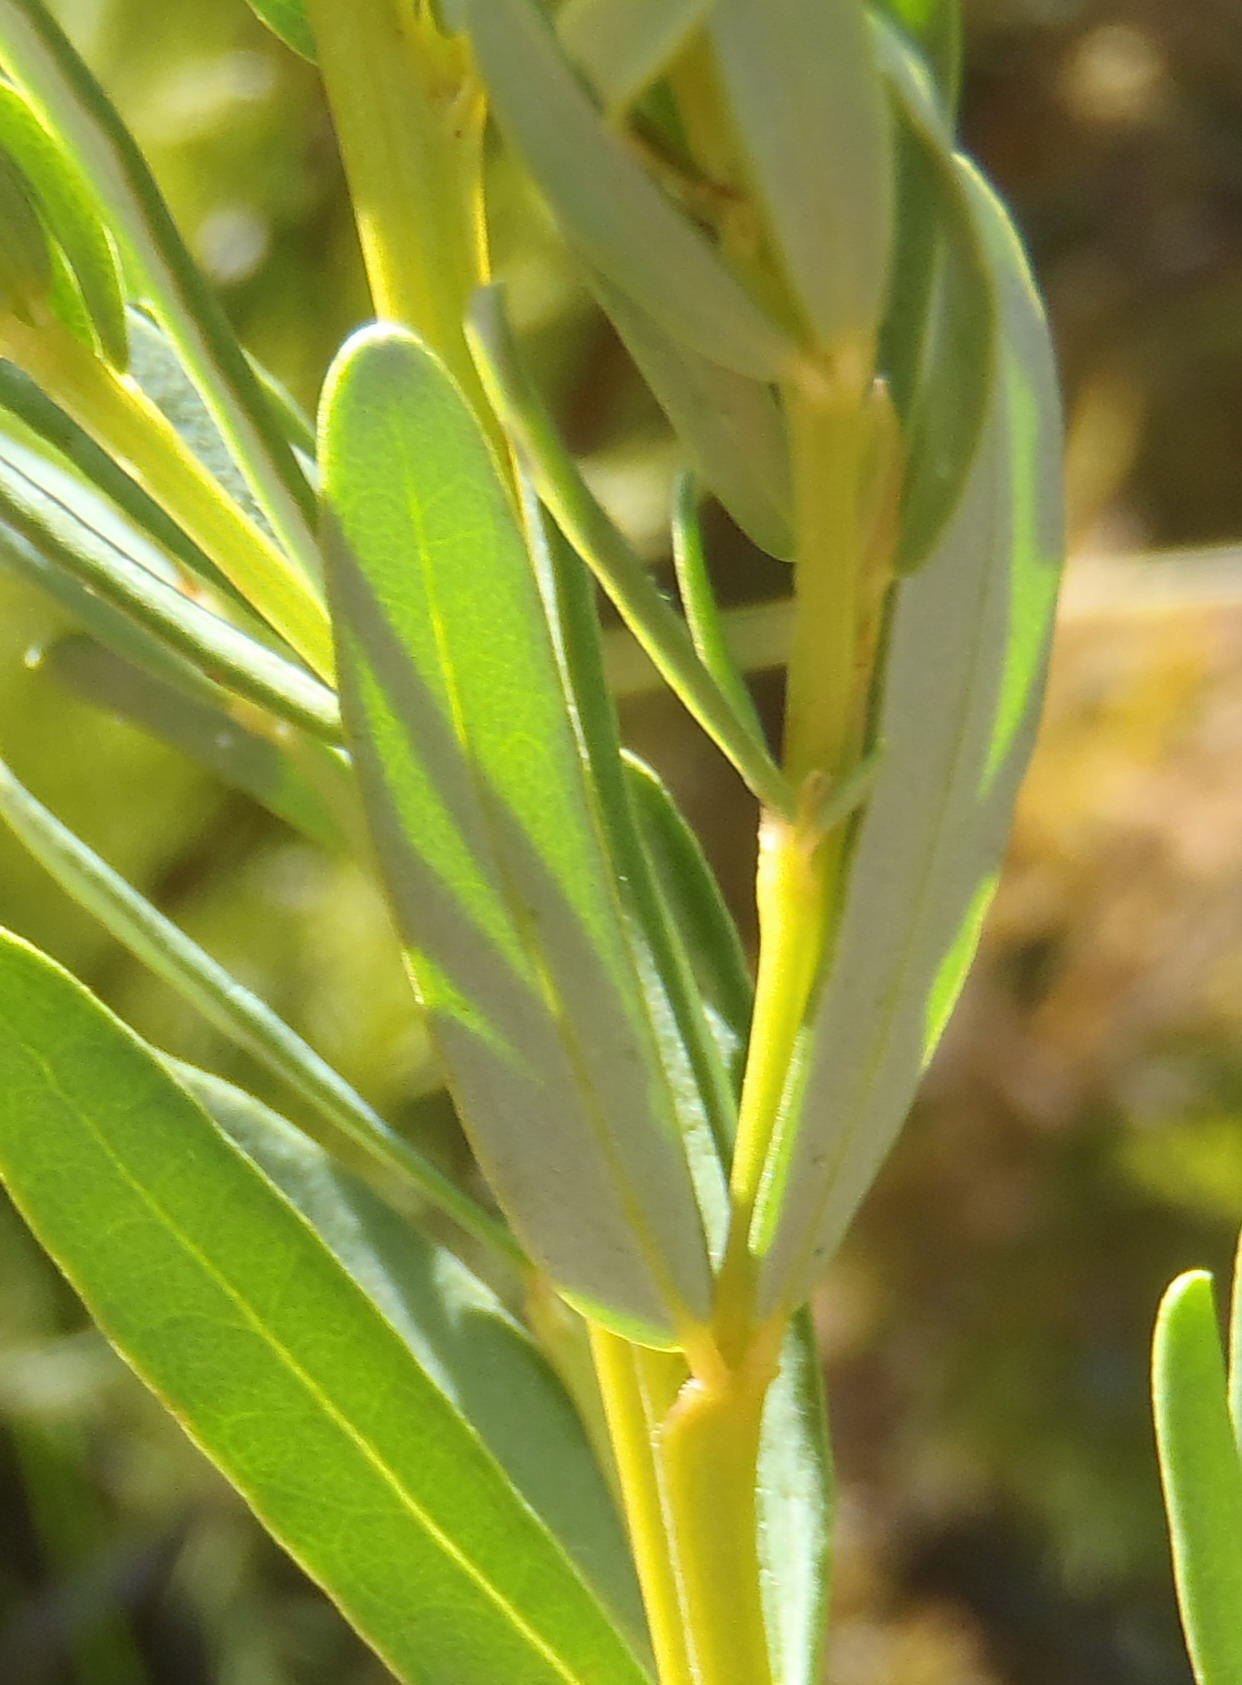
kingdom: Plantae
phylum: Tracheophyta
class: Magnoliopsida
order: Fabales
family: Fabaceae
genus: Cyclopia
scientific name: Cyclopia subternata
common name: Honeybush tea
